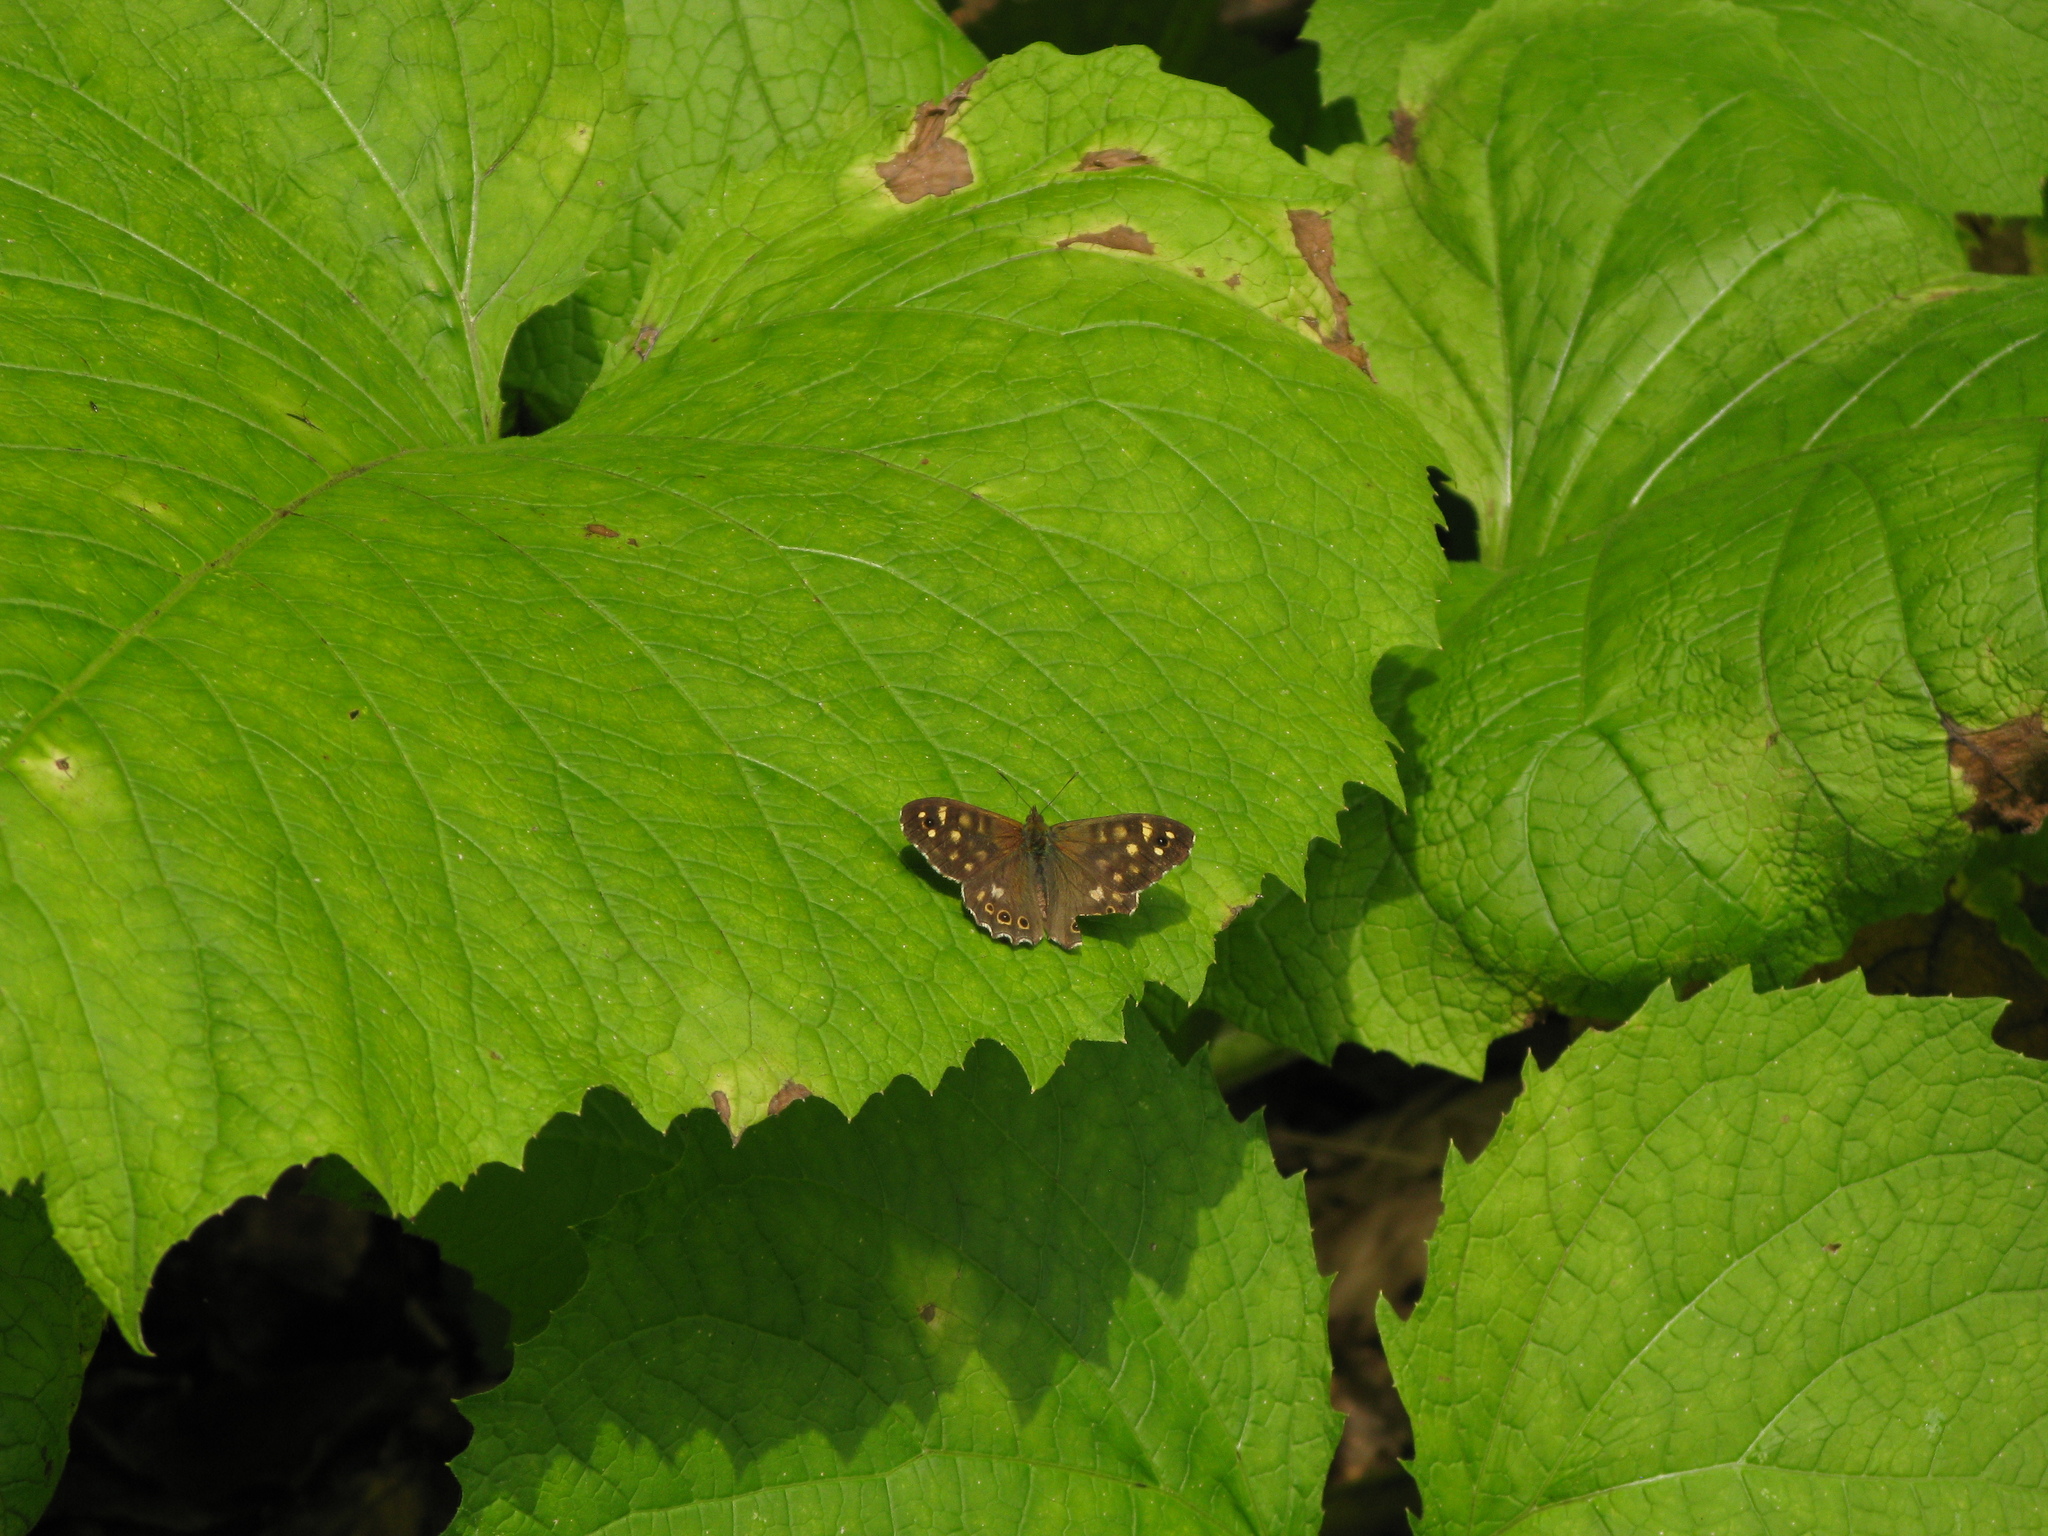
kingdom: Animalia
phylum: Arthropoda
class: Insecta
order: Lepidoptera
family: Nymphalidae
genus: Pararge
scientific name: Pararge aegeria
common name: Speckled wood
